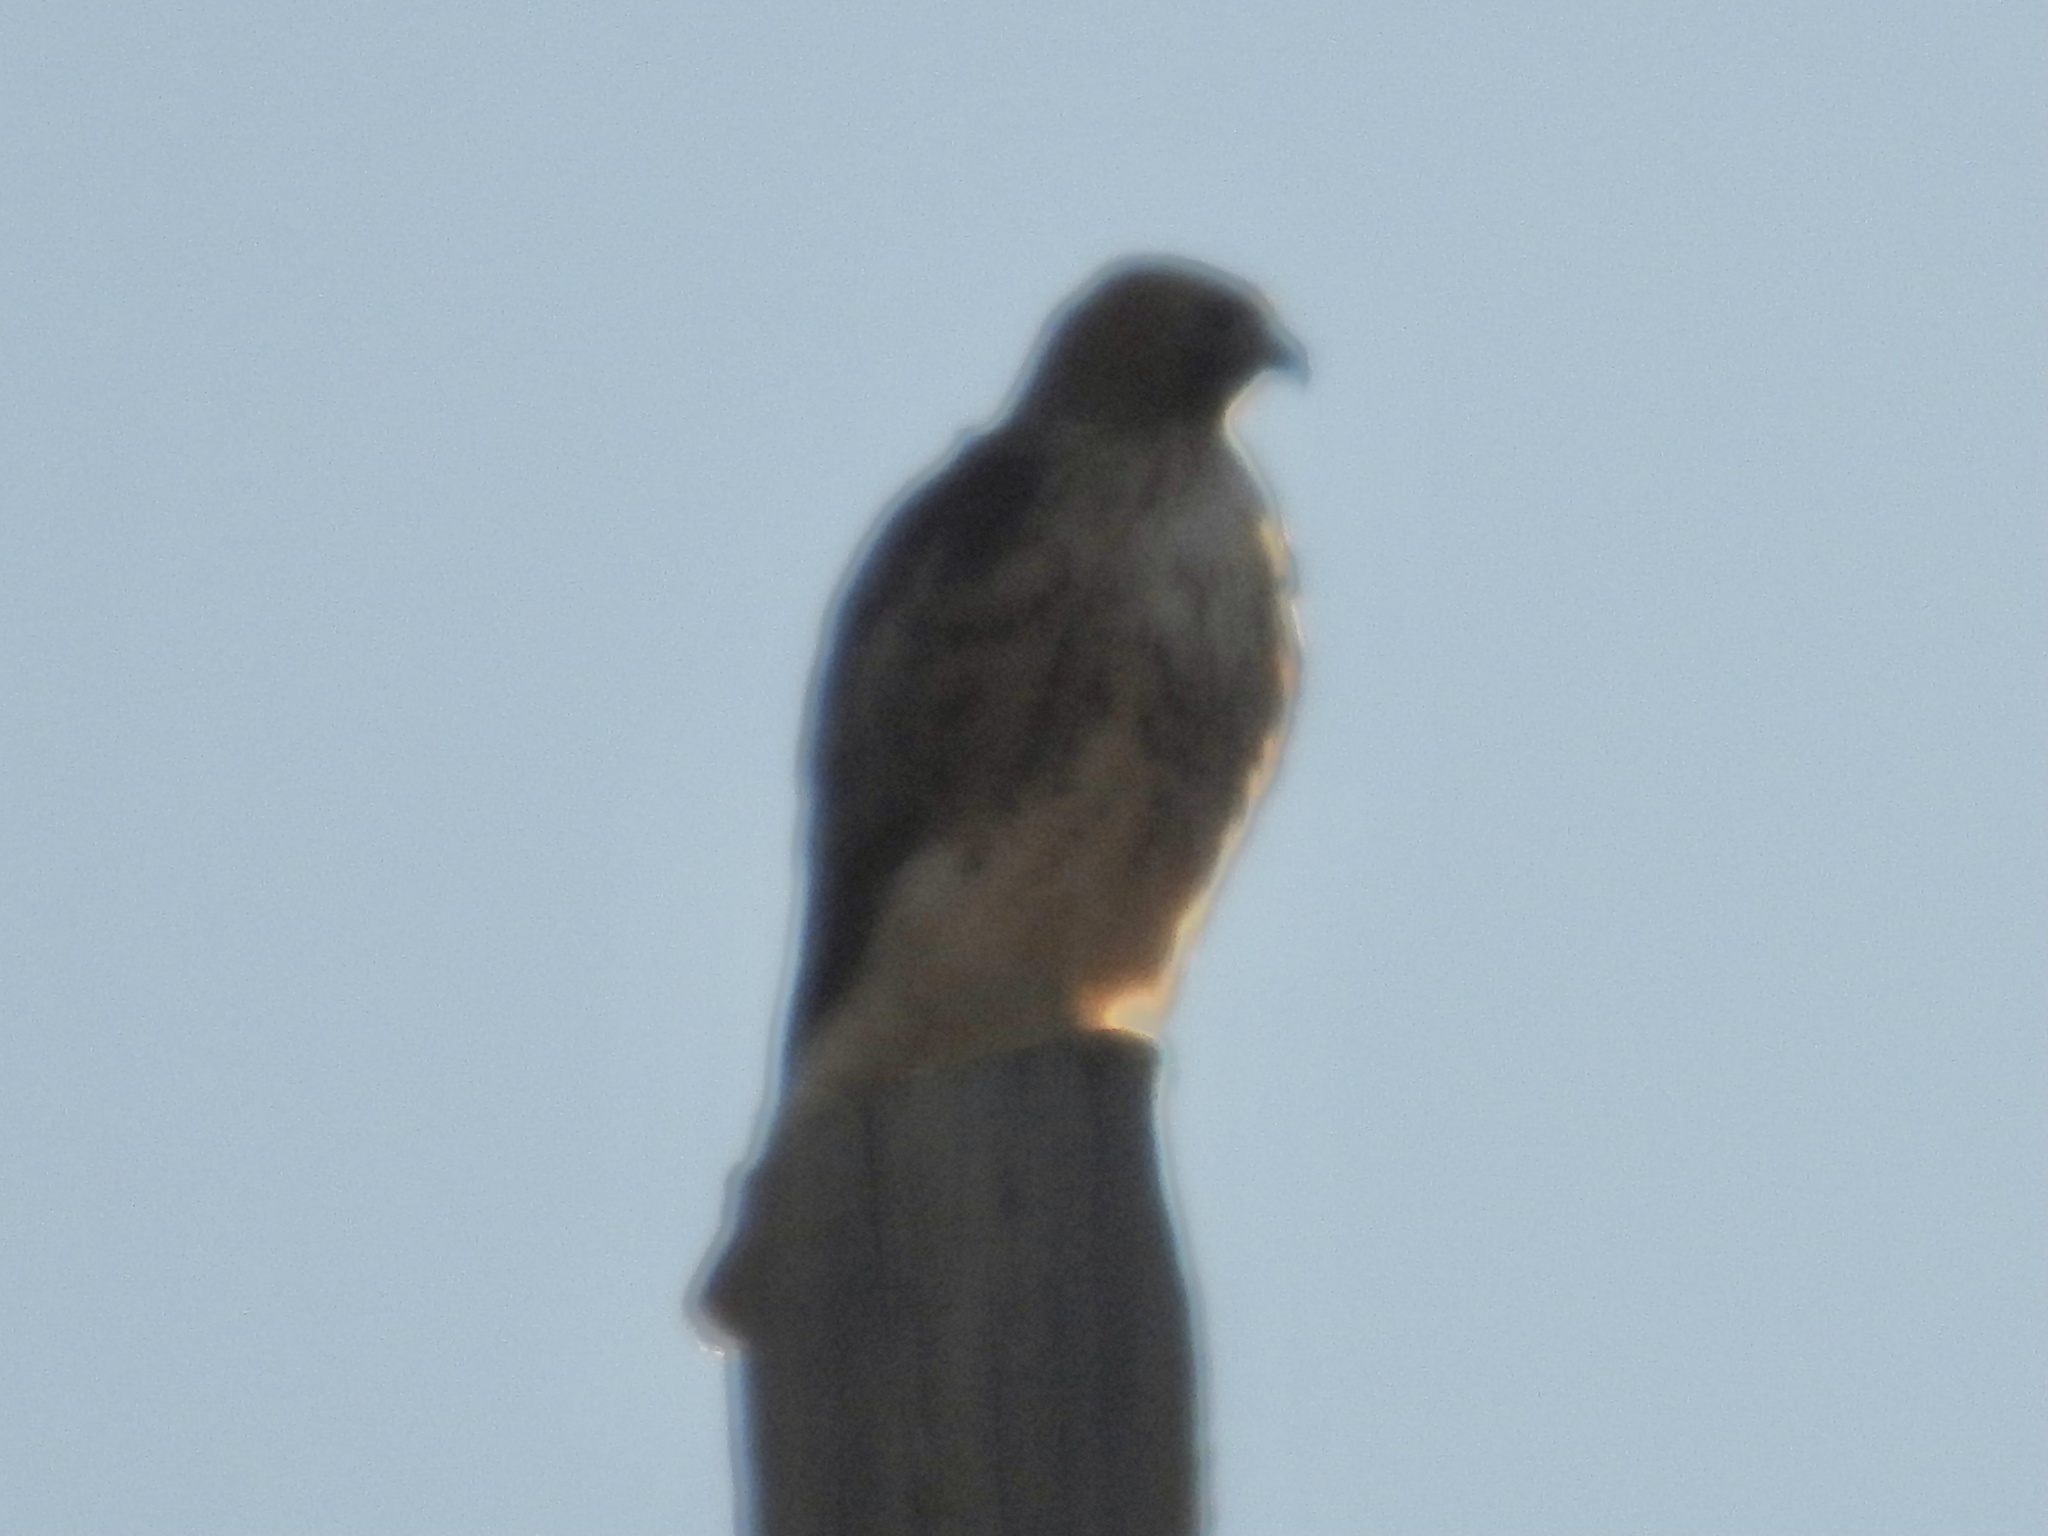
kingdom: Animalia
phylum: Chordata
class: Aves
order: Accipitriformes
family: Accipitridae
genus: Buteo
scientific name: Buteo jamaicensis
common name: Red-tailed hawk
